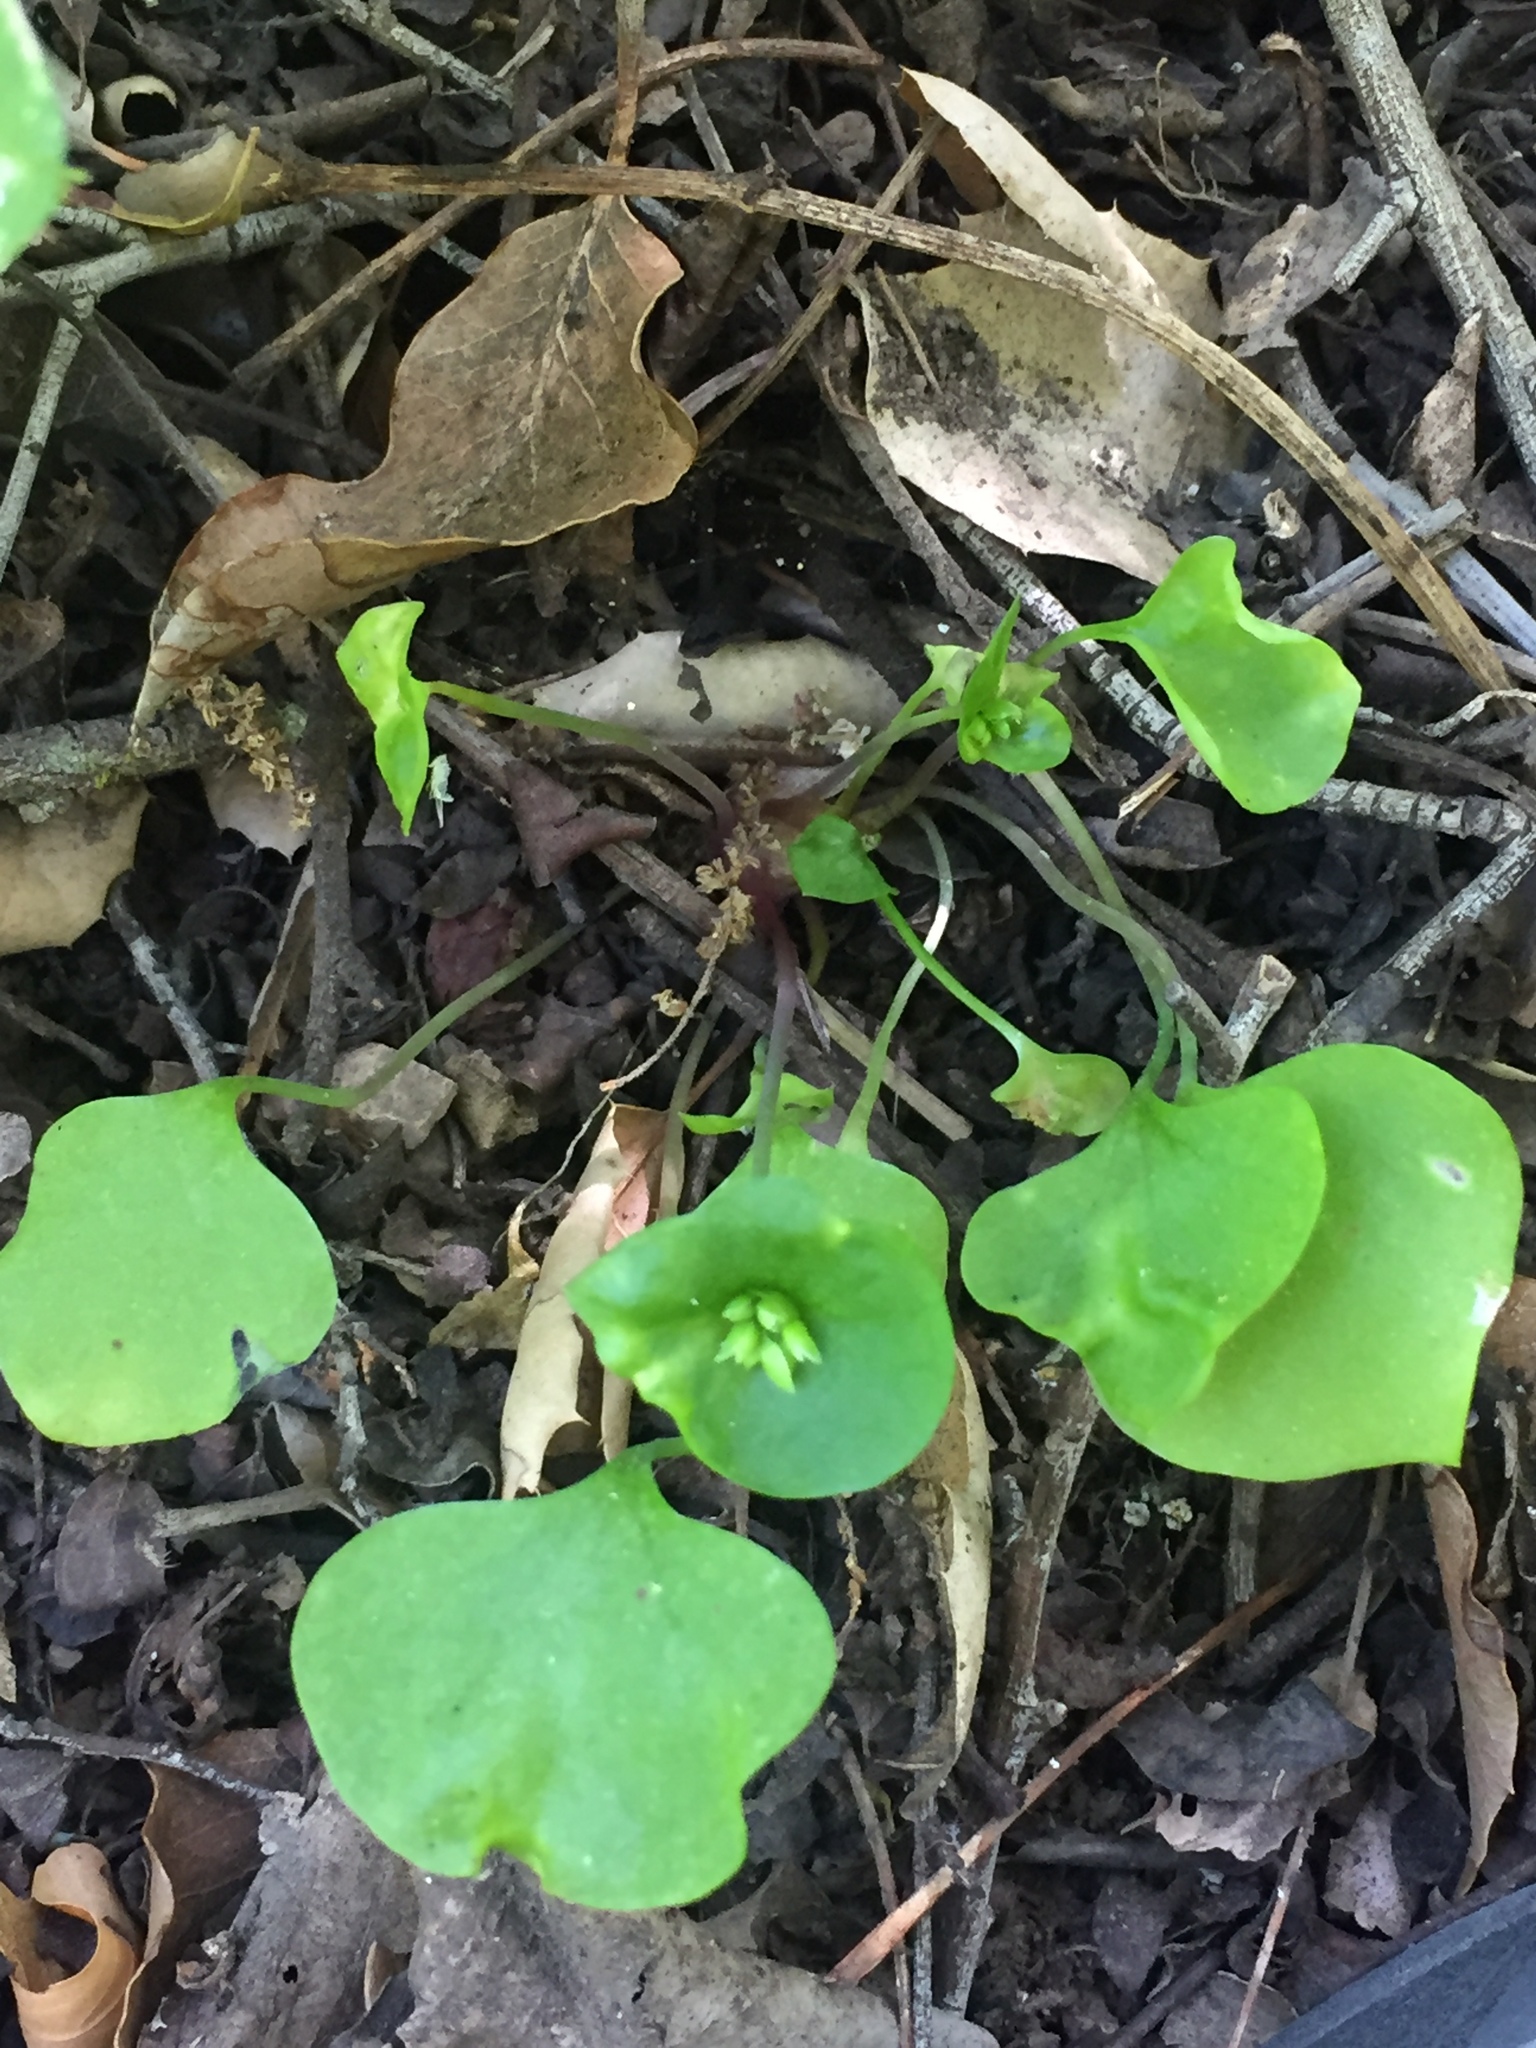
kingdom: Plantae
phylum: Tracheophyta
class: Magnoliopsida
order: Caryophyllales
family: Montiaceae
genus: Claytonia
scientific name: Claytonia perfoliata
